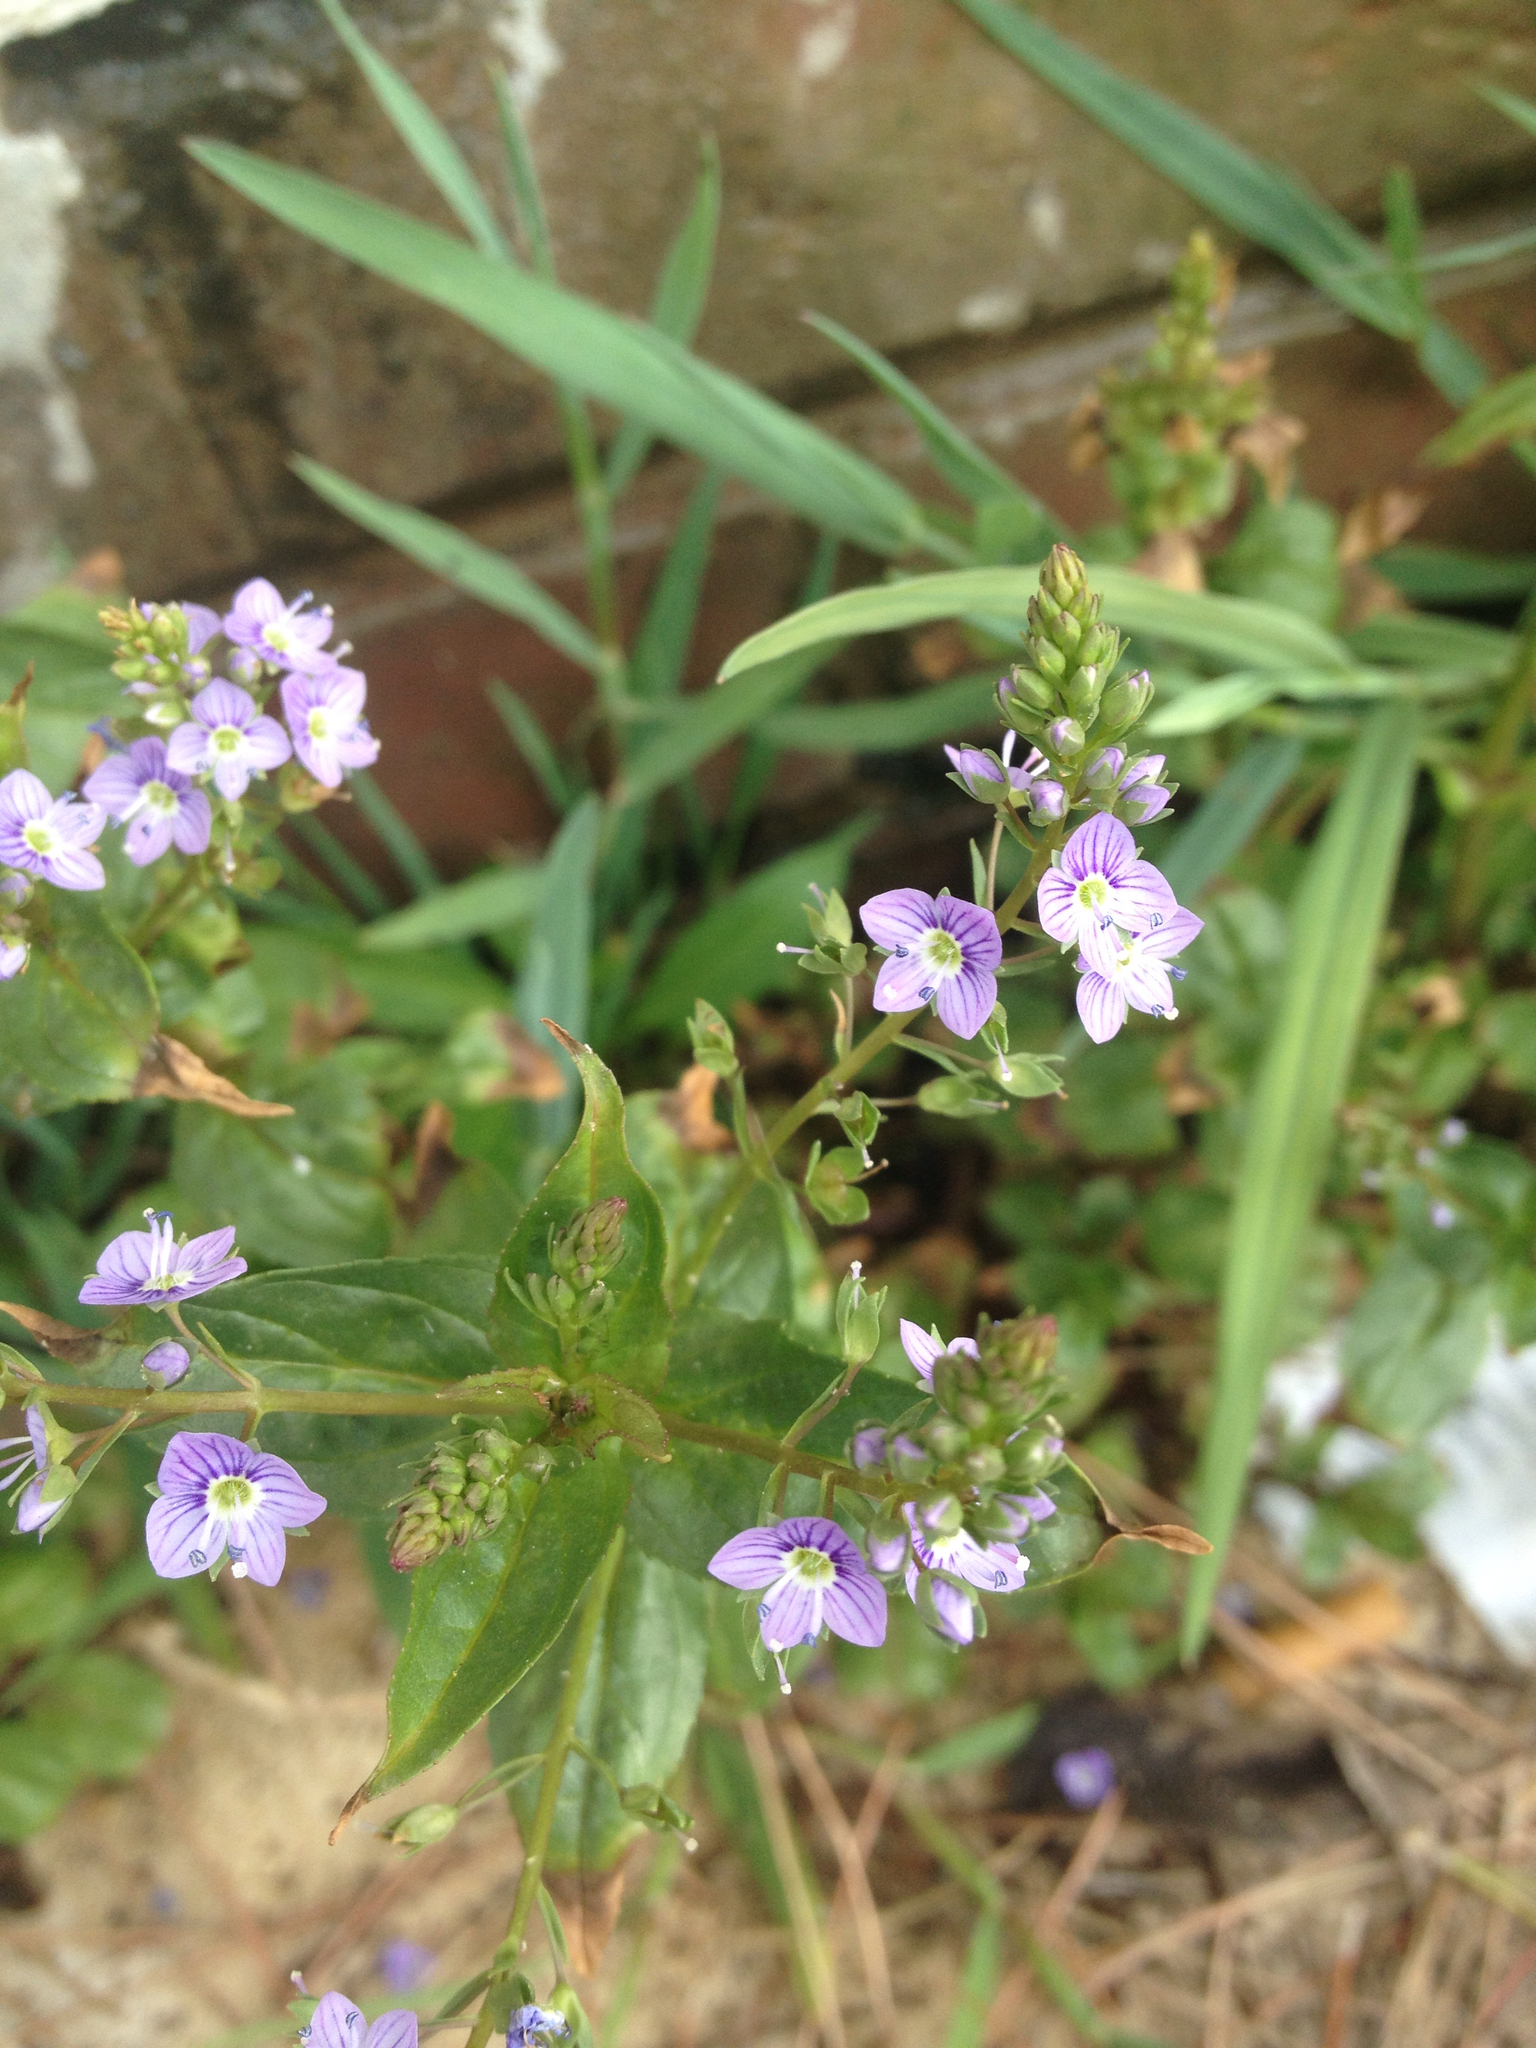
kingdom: Plantae
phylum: Tracheophyta
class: Magnoliopsida
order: Lamiales
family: Plantaginaceae
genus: Veronica
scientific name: Veronica anagallis-aquatica
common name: Water speedwell
